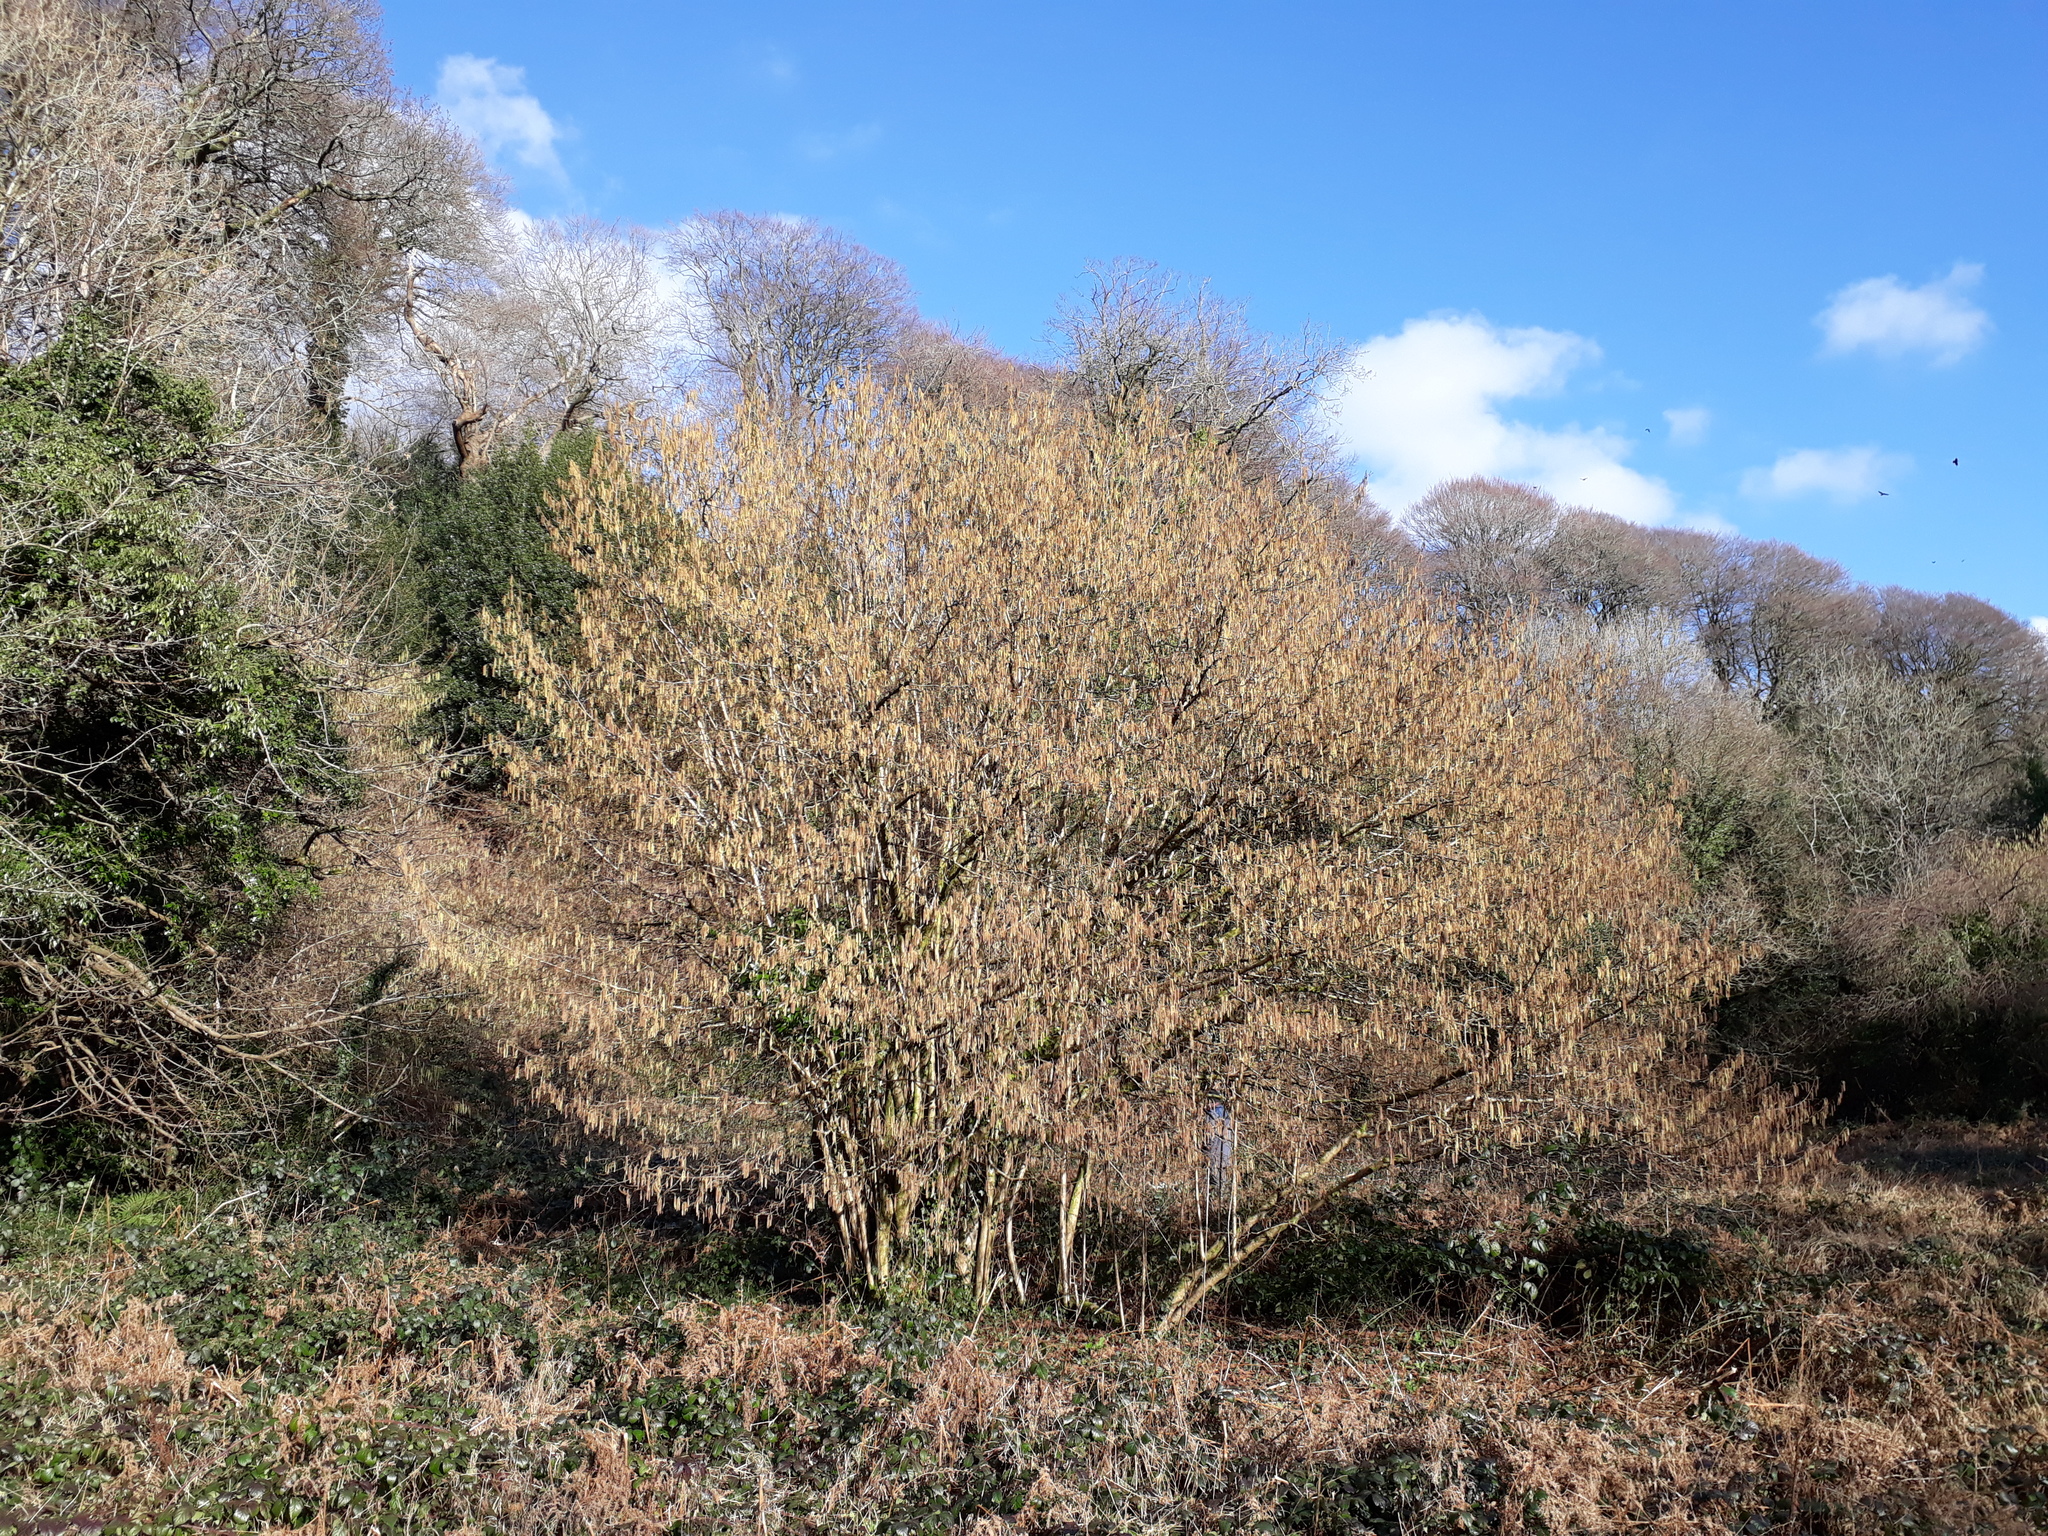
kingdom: Plantae
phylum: Tracheophyta
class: Magnoliopsida
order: Fagales
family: Betulaceae
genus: Corylus
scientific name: Corylus avellana
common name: European hazel
